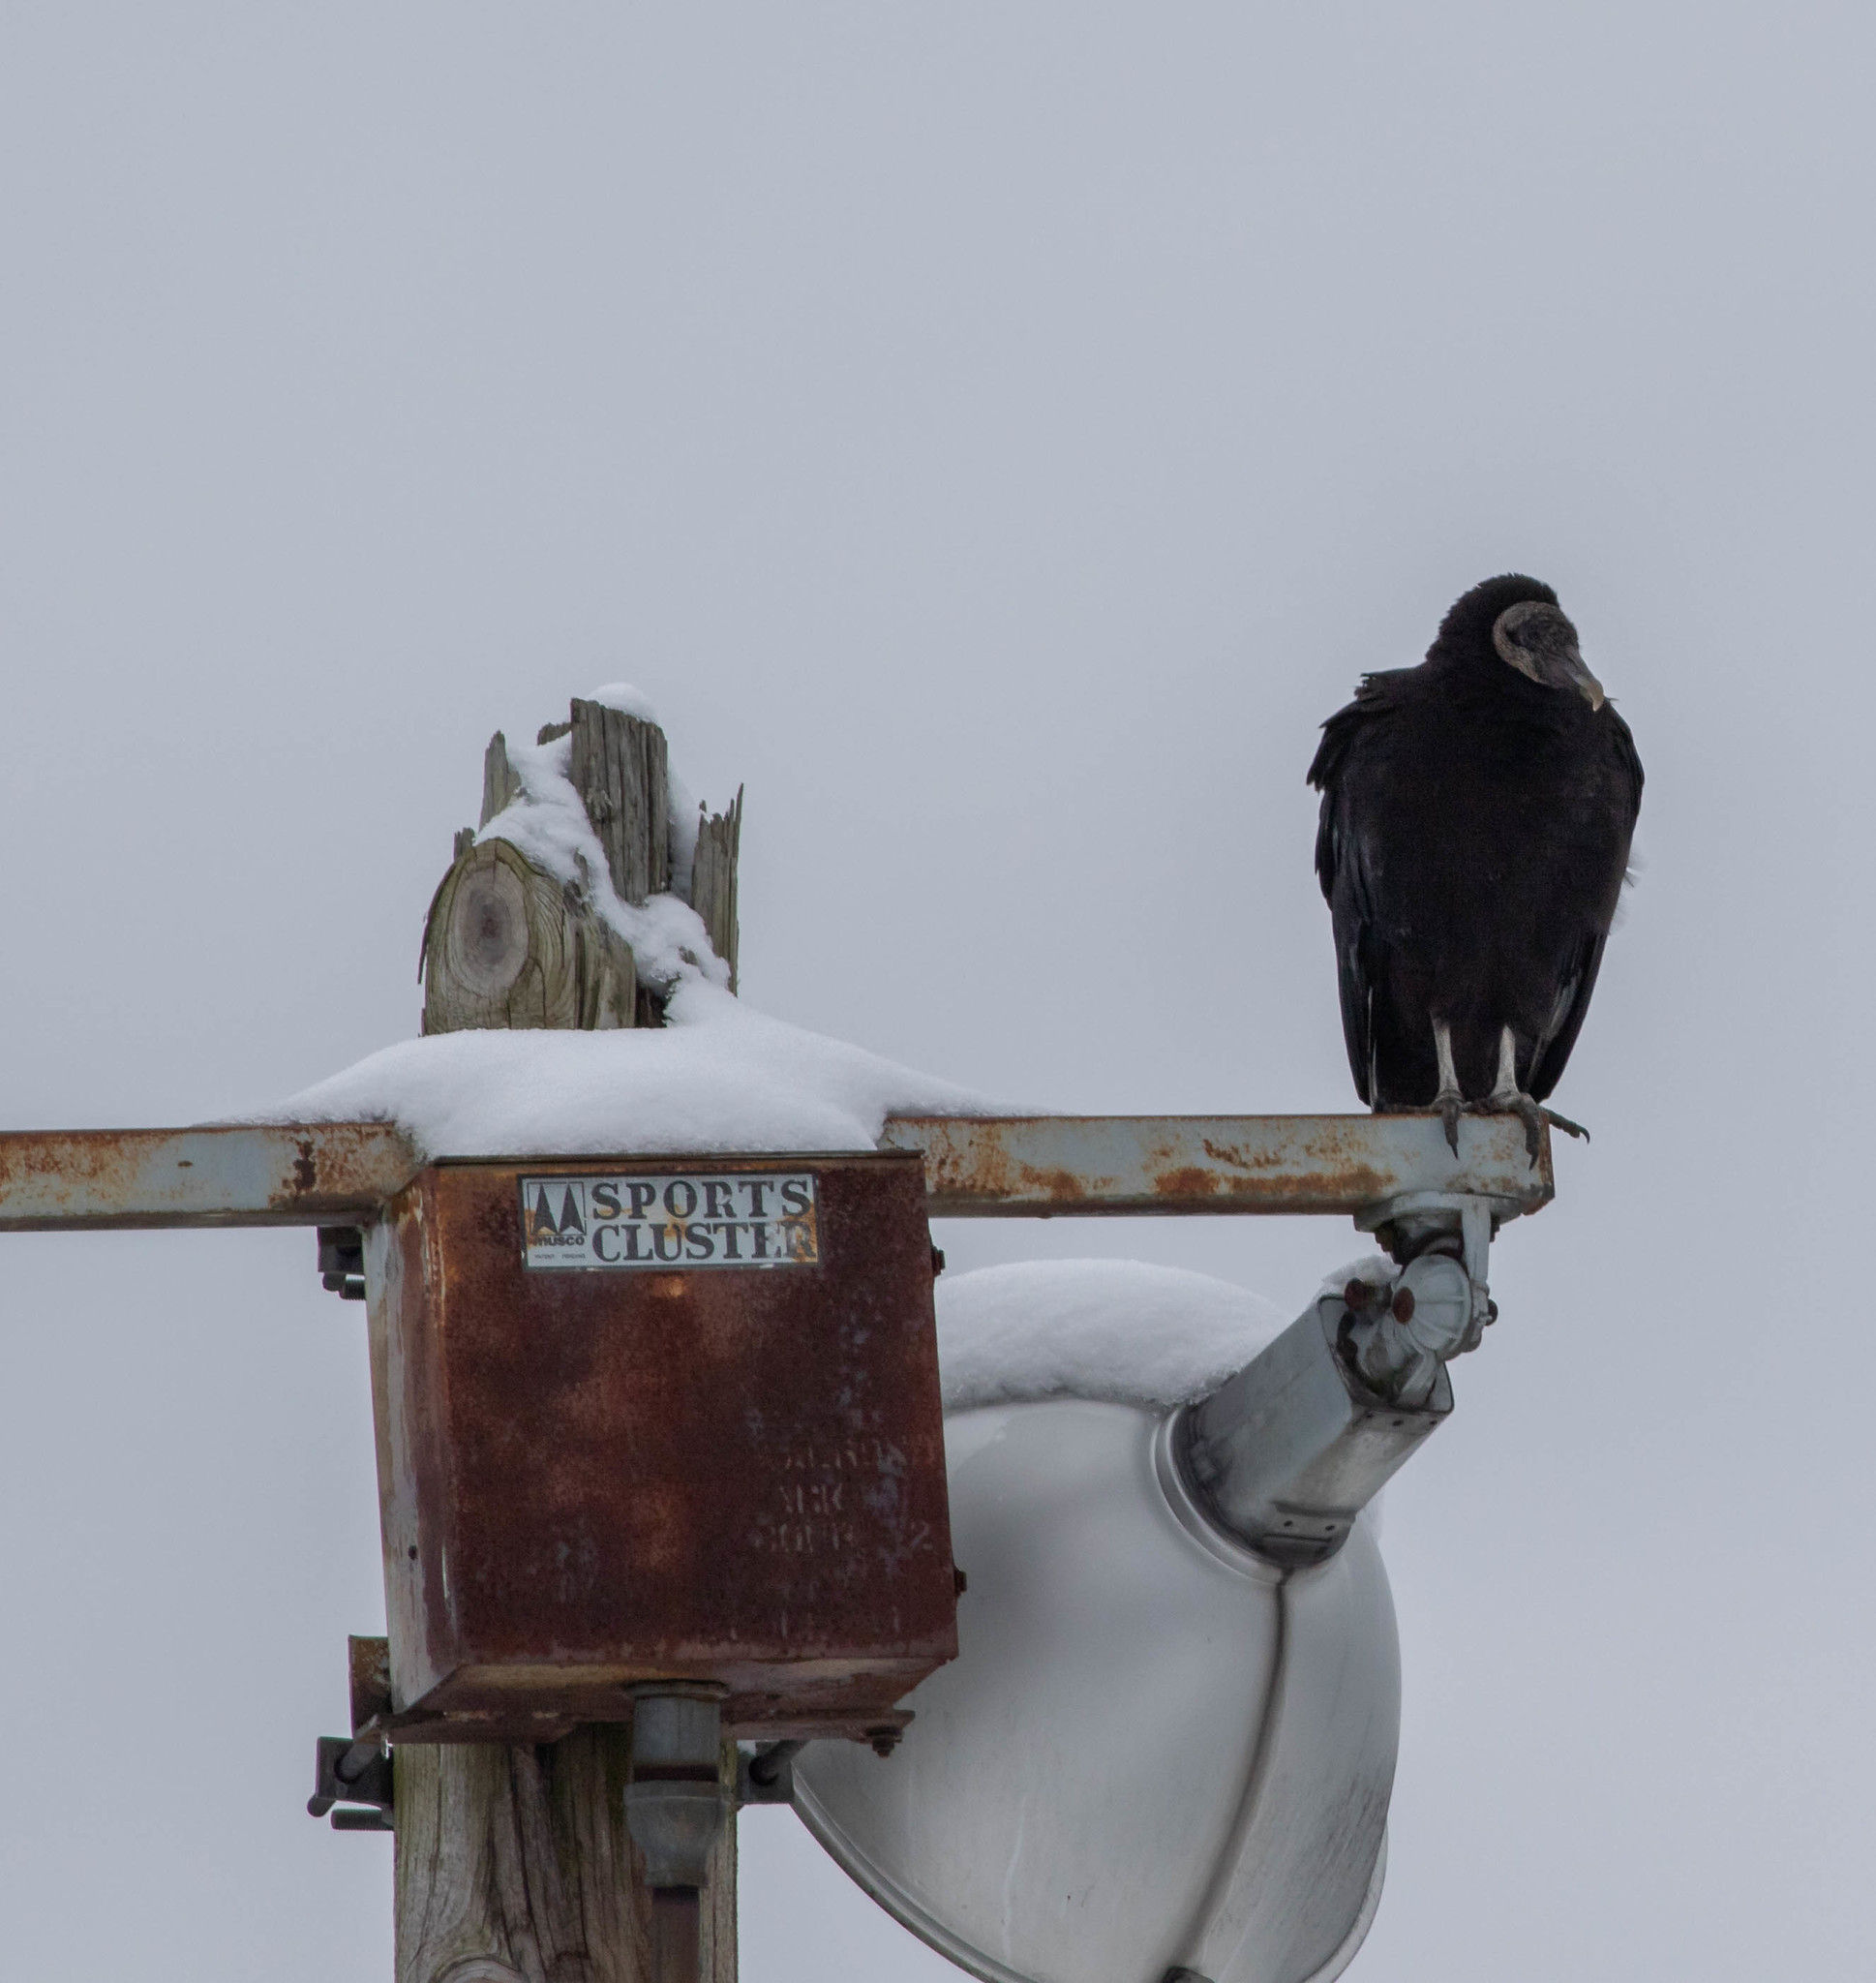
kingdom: Animalia
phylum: Chordata
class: Aves
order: Accipitriformes
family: Cathartidae
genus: Coragyps
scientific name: Coragyps atratus
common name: Black vulture
